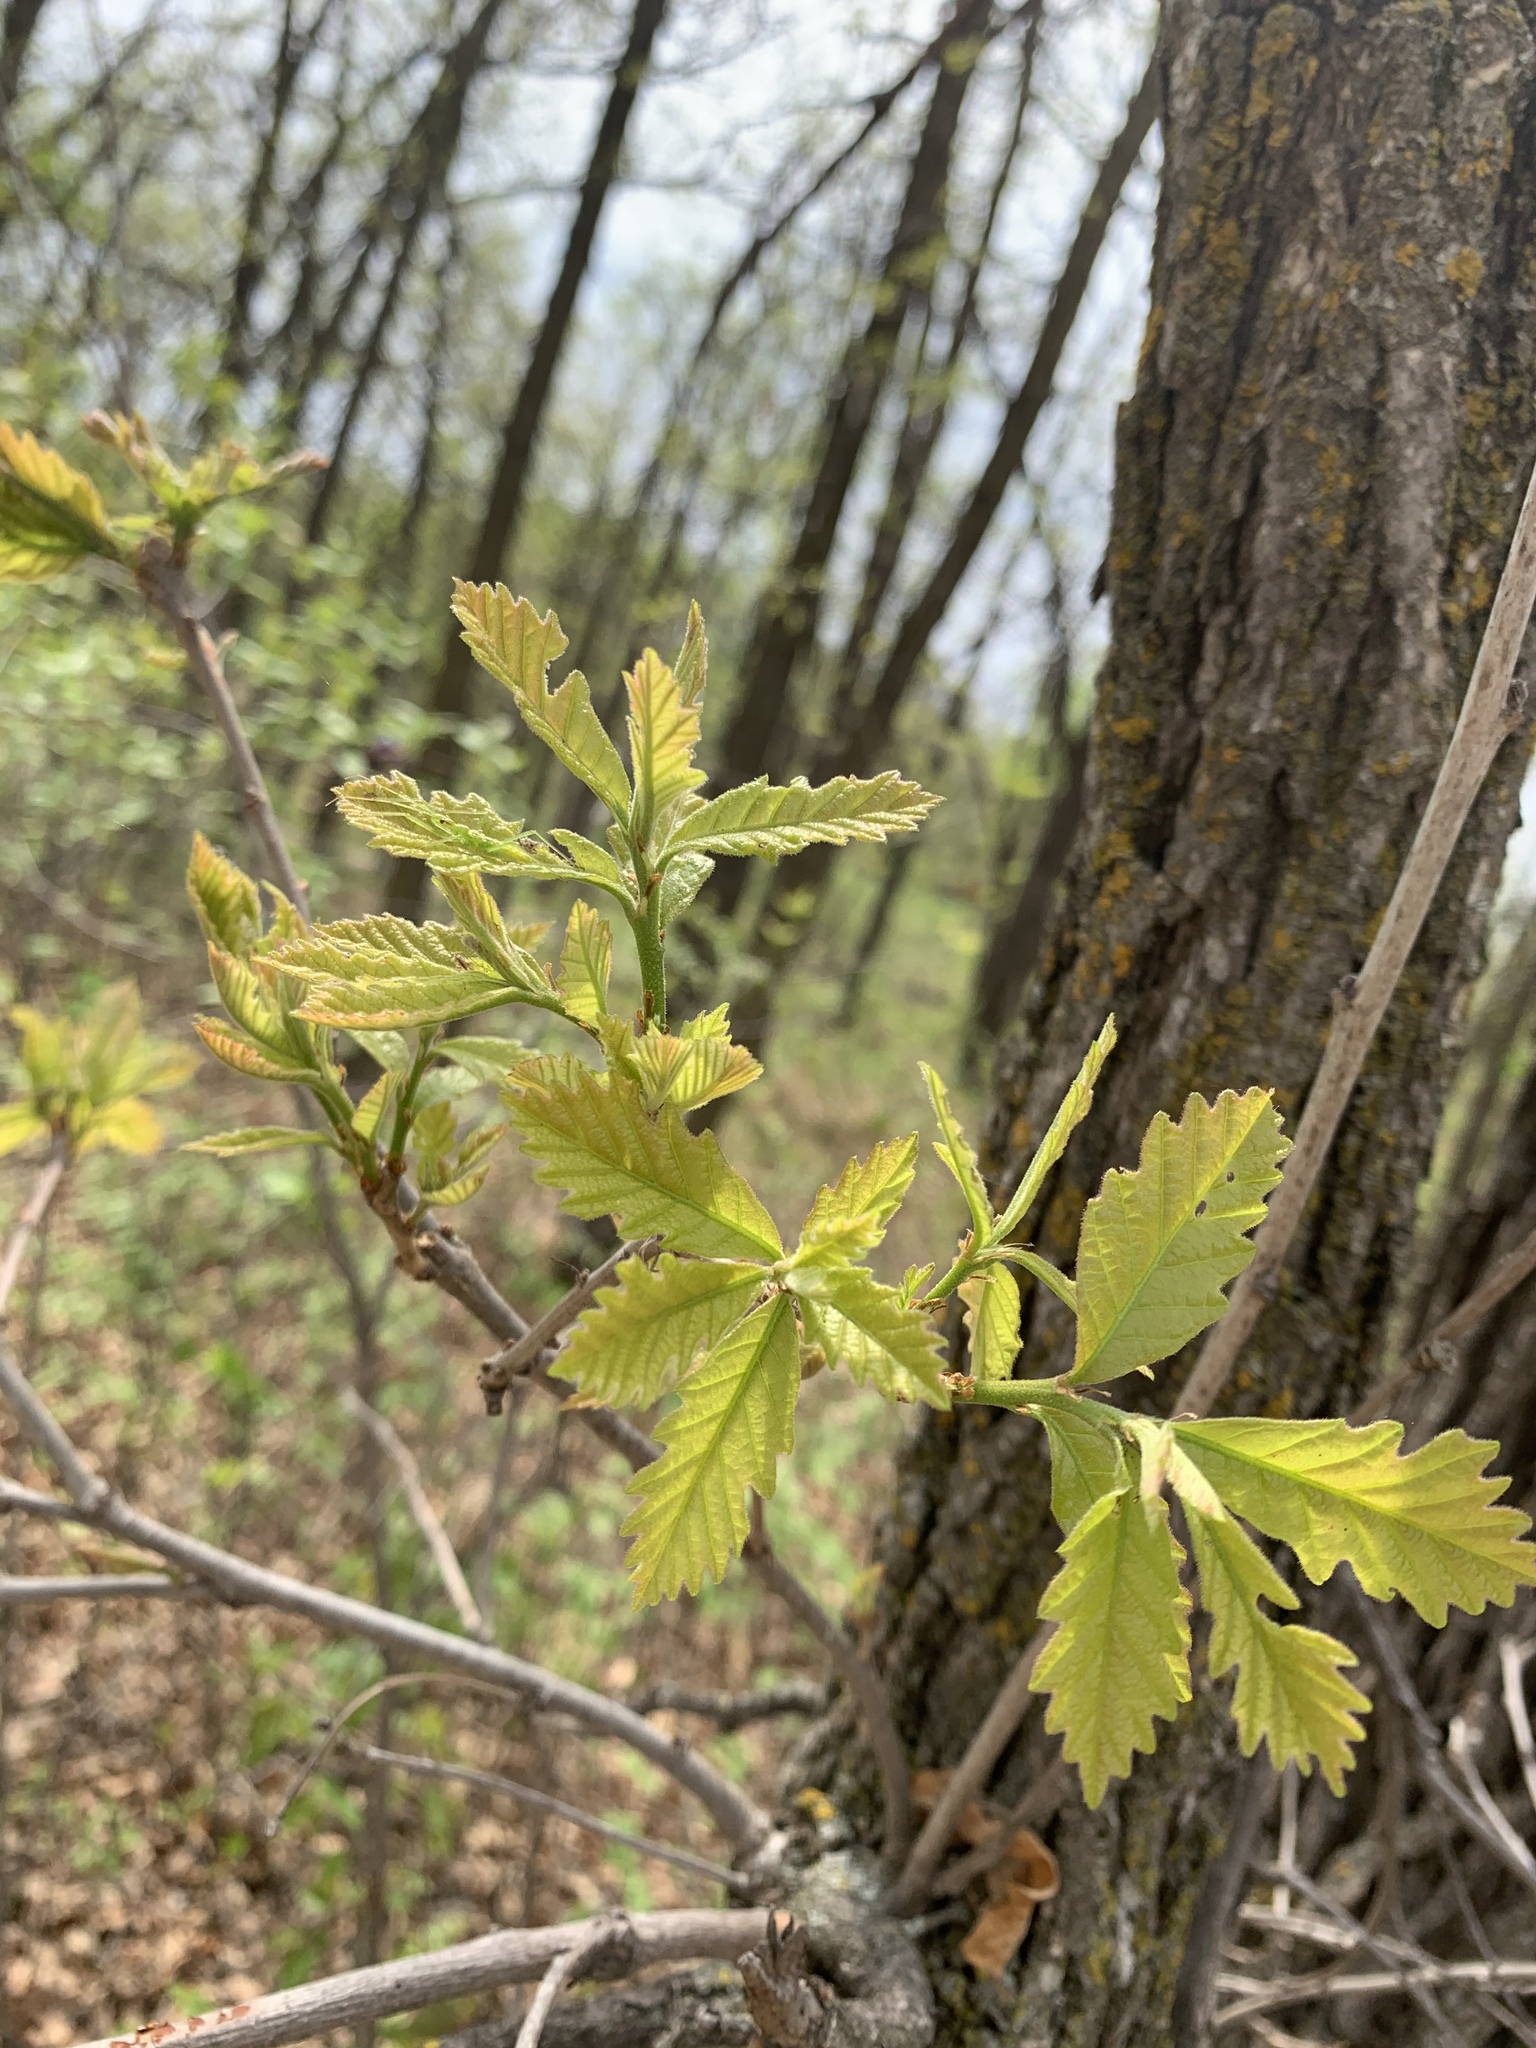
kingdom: Plantae
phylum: Tracheophyta
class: Magnoliopsida
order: Fagales
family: Fagaceae
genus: Quercus
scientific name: Quercus macrocarpa
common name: Bur oak
